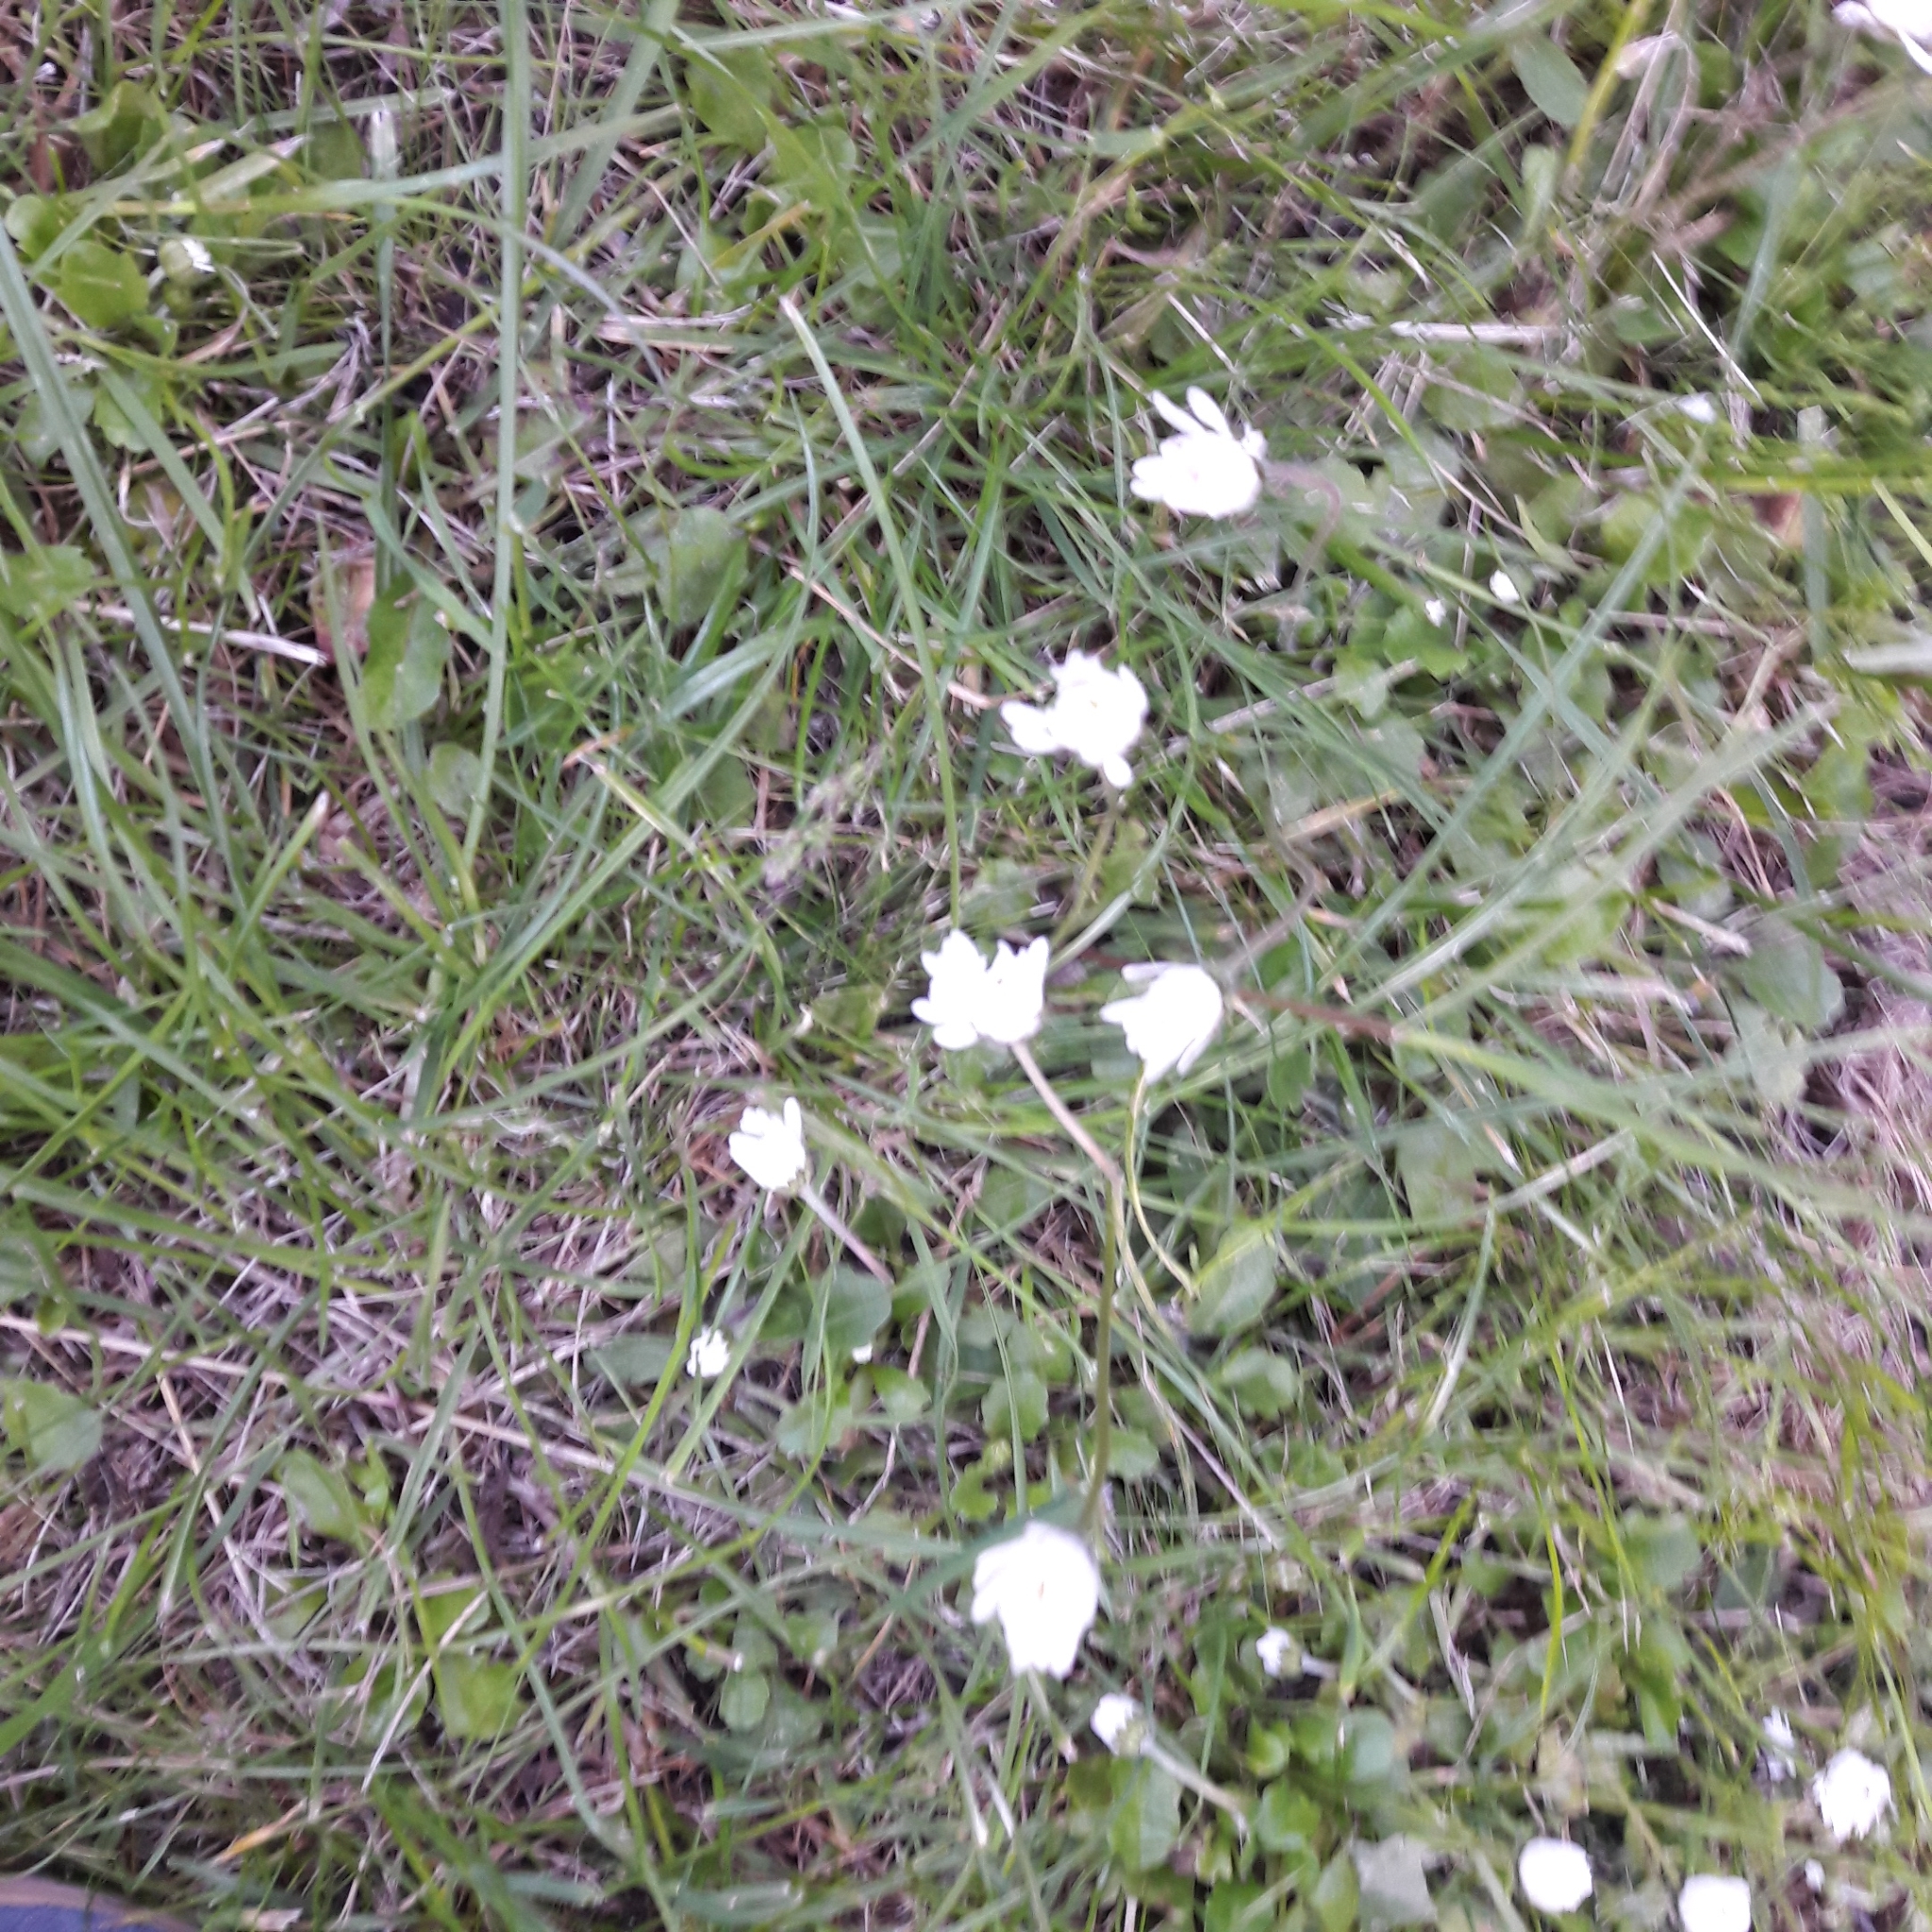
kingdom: Plantae
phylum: Tracheophyta
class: Magnoliopsida
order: Asterales
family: Asteraceae
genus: Bellis
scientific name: Bellis perennis
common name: Lawndaisy
